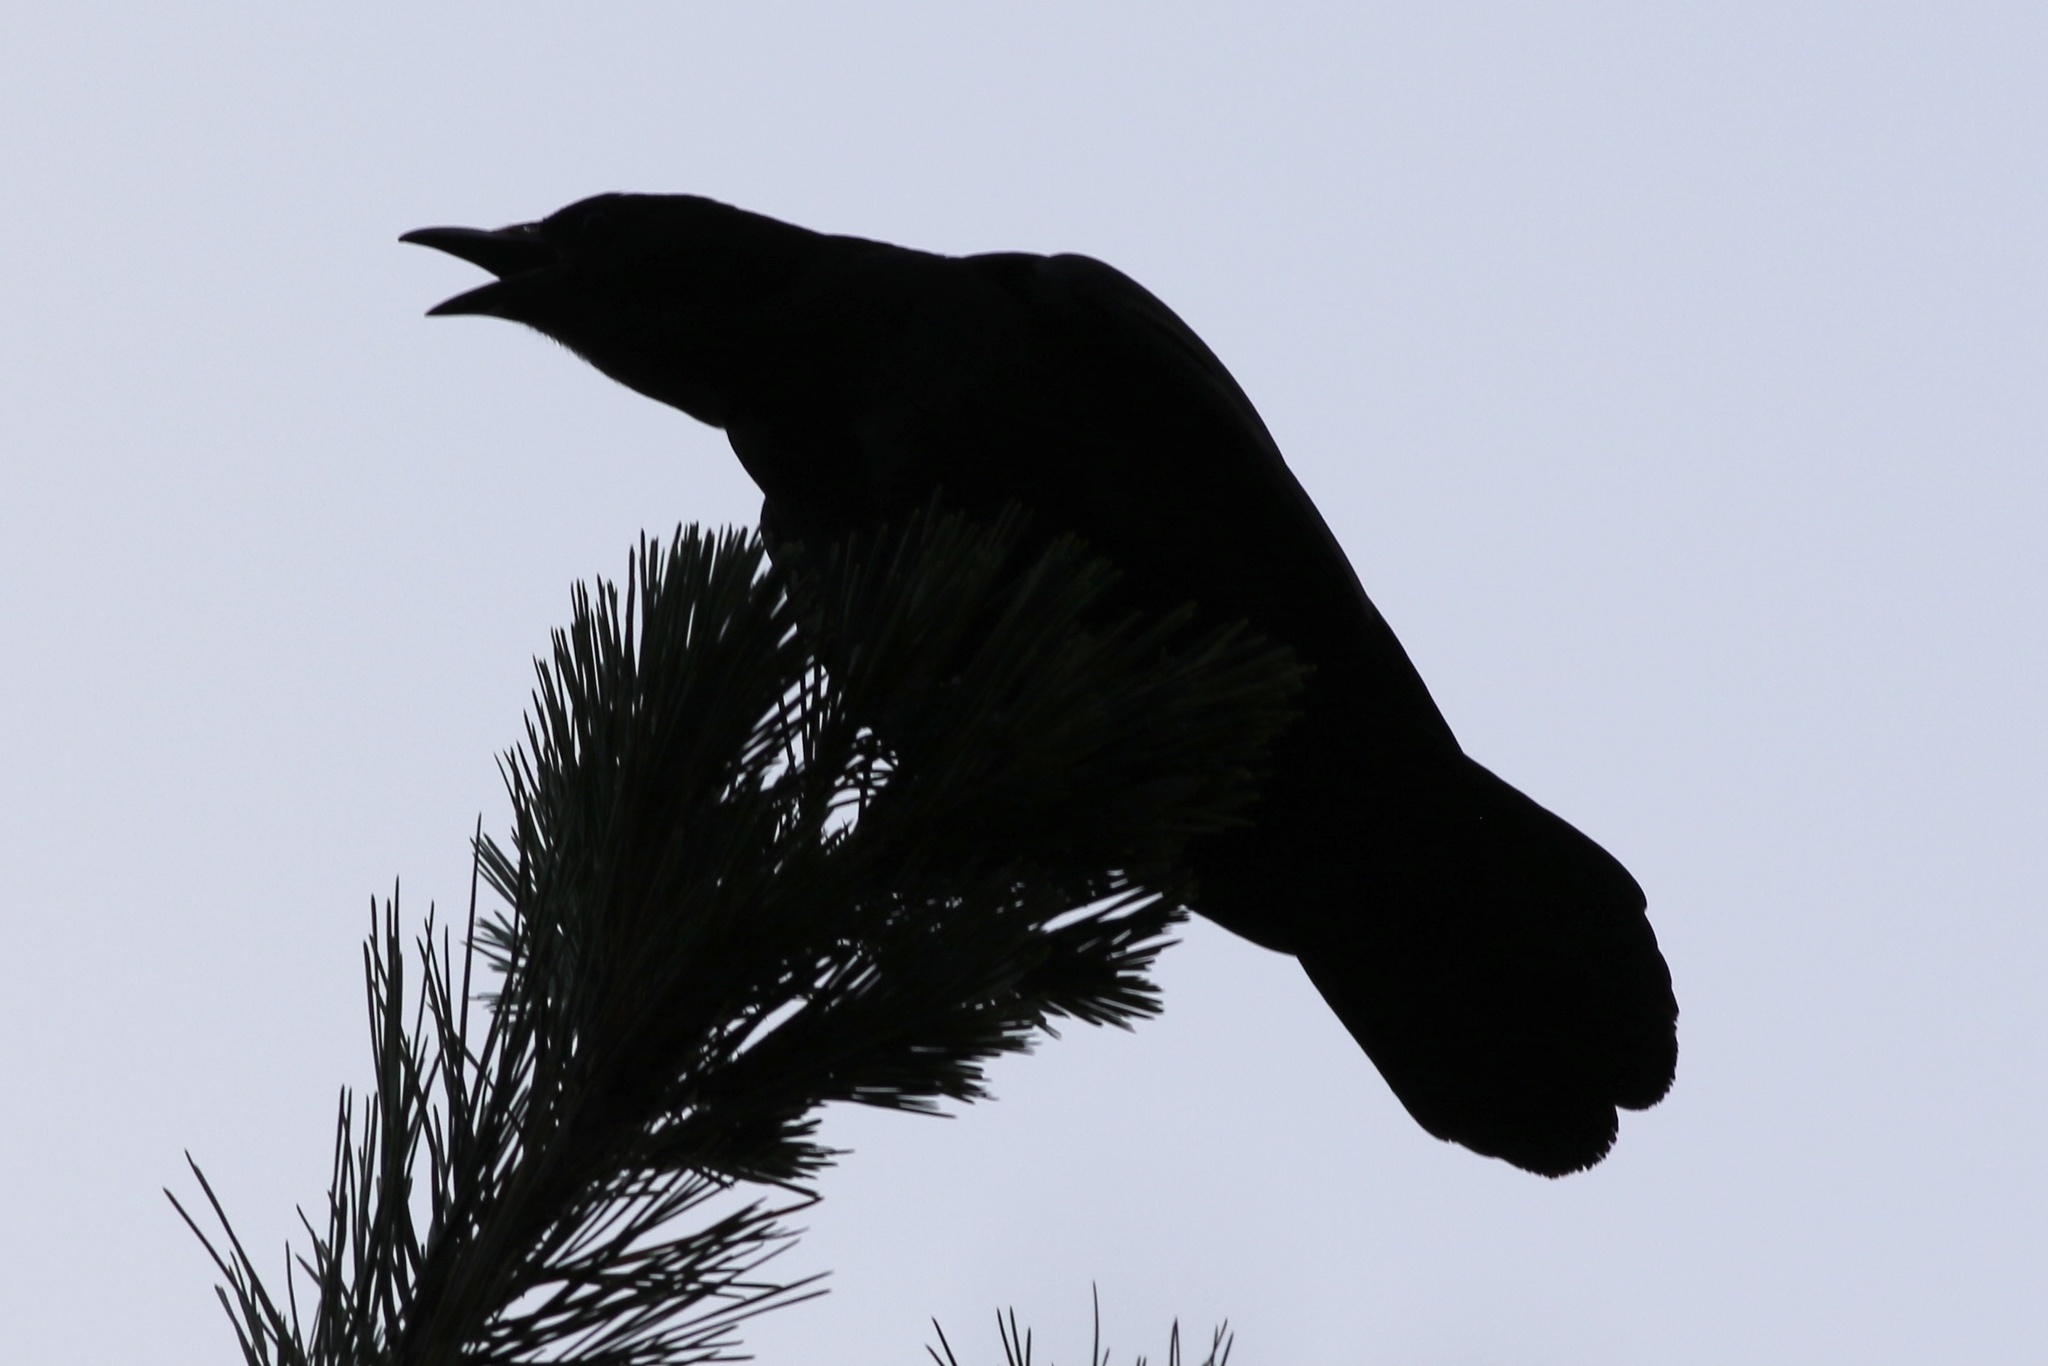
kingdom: Animalia
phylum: Chordata
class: Aves
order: Passeriformes
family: Corvidae
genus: Corvus
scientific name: Corvus brachyrhynchos
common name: American crow
